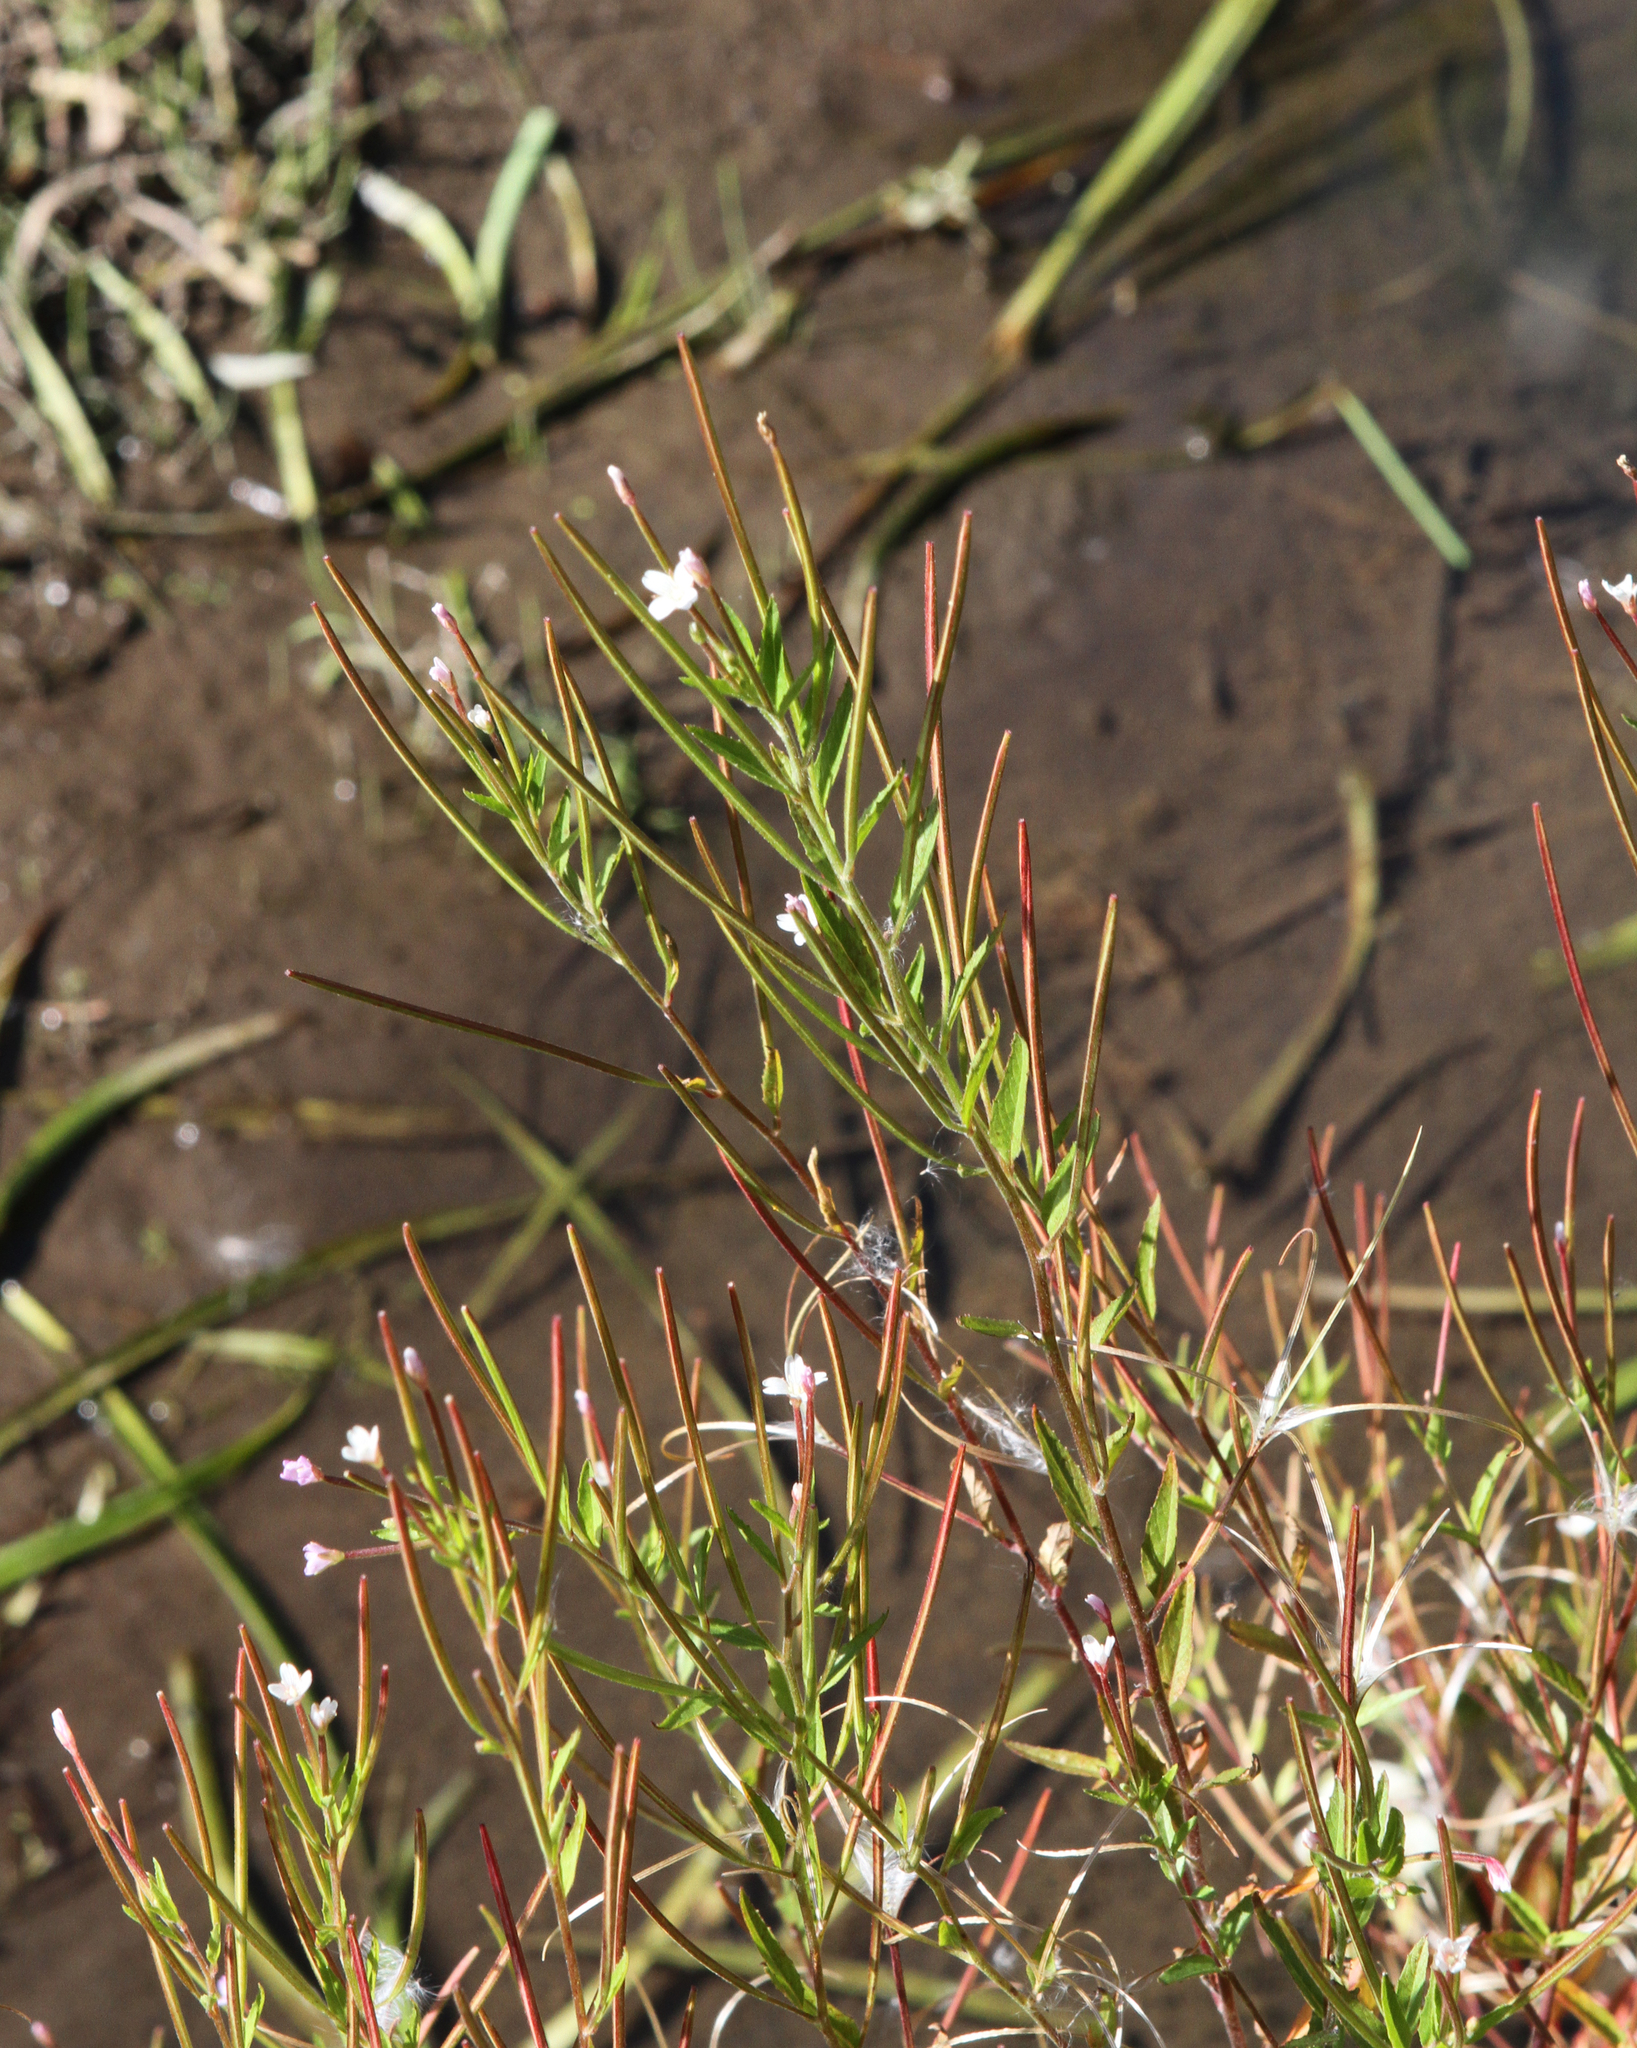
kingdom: Plantae
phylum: Tracheophyta
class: Magnoliopsida
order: Myrtales
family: Onagraceae
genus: Epilobium
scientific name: Epilobium pseudorubescens
